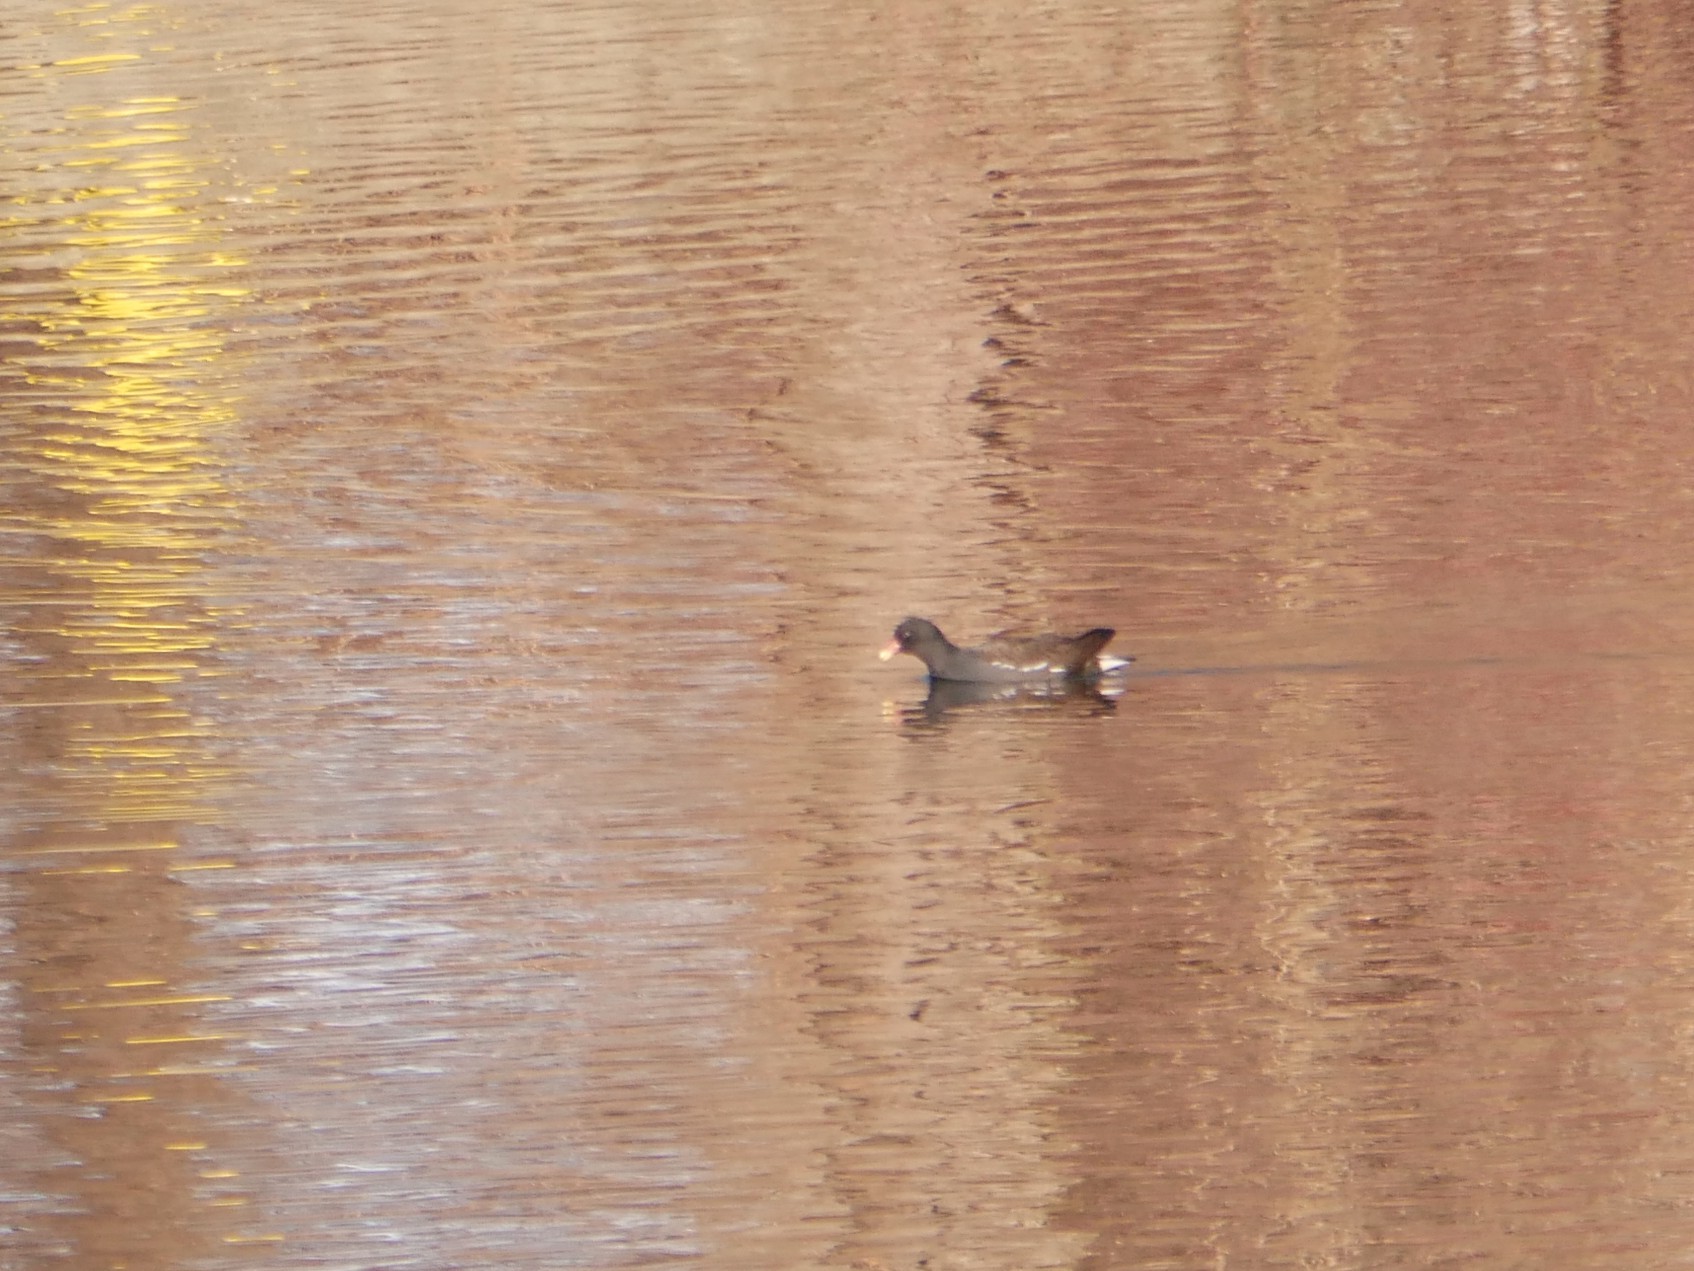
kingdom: Animalia
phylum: Chordata
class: Aves
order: Gruiformes
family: Rallidae
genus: Gallinula
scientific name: Gallinula chloropus
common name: Common moorhen
